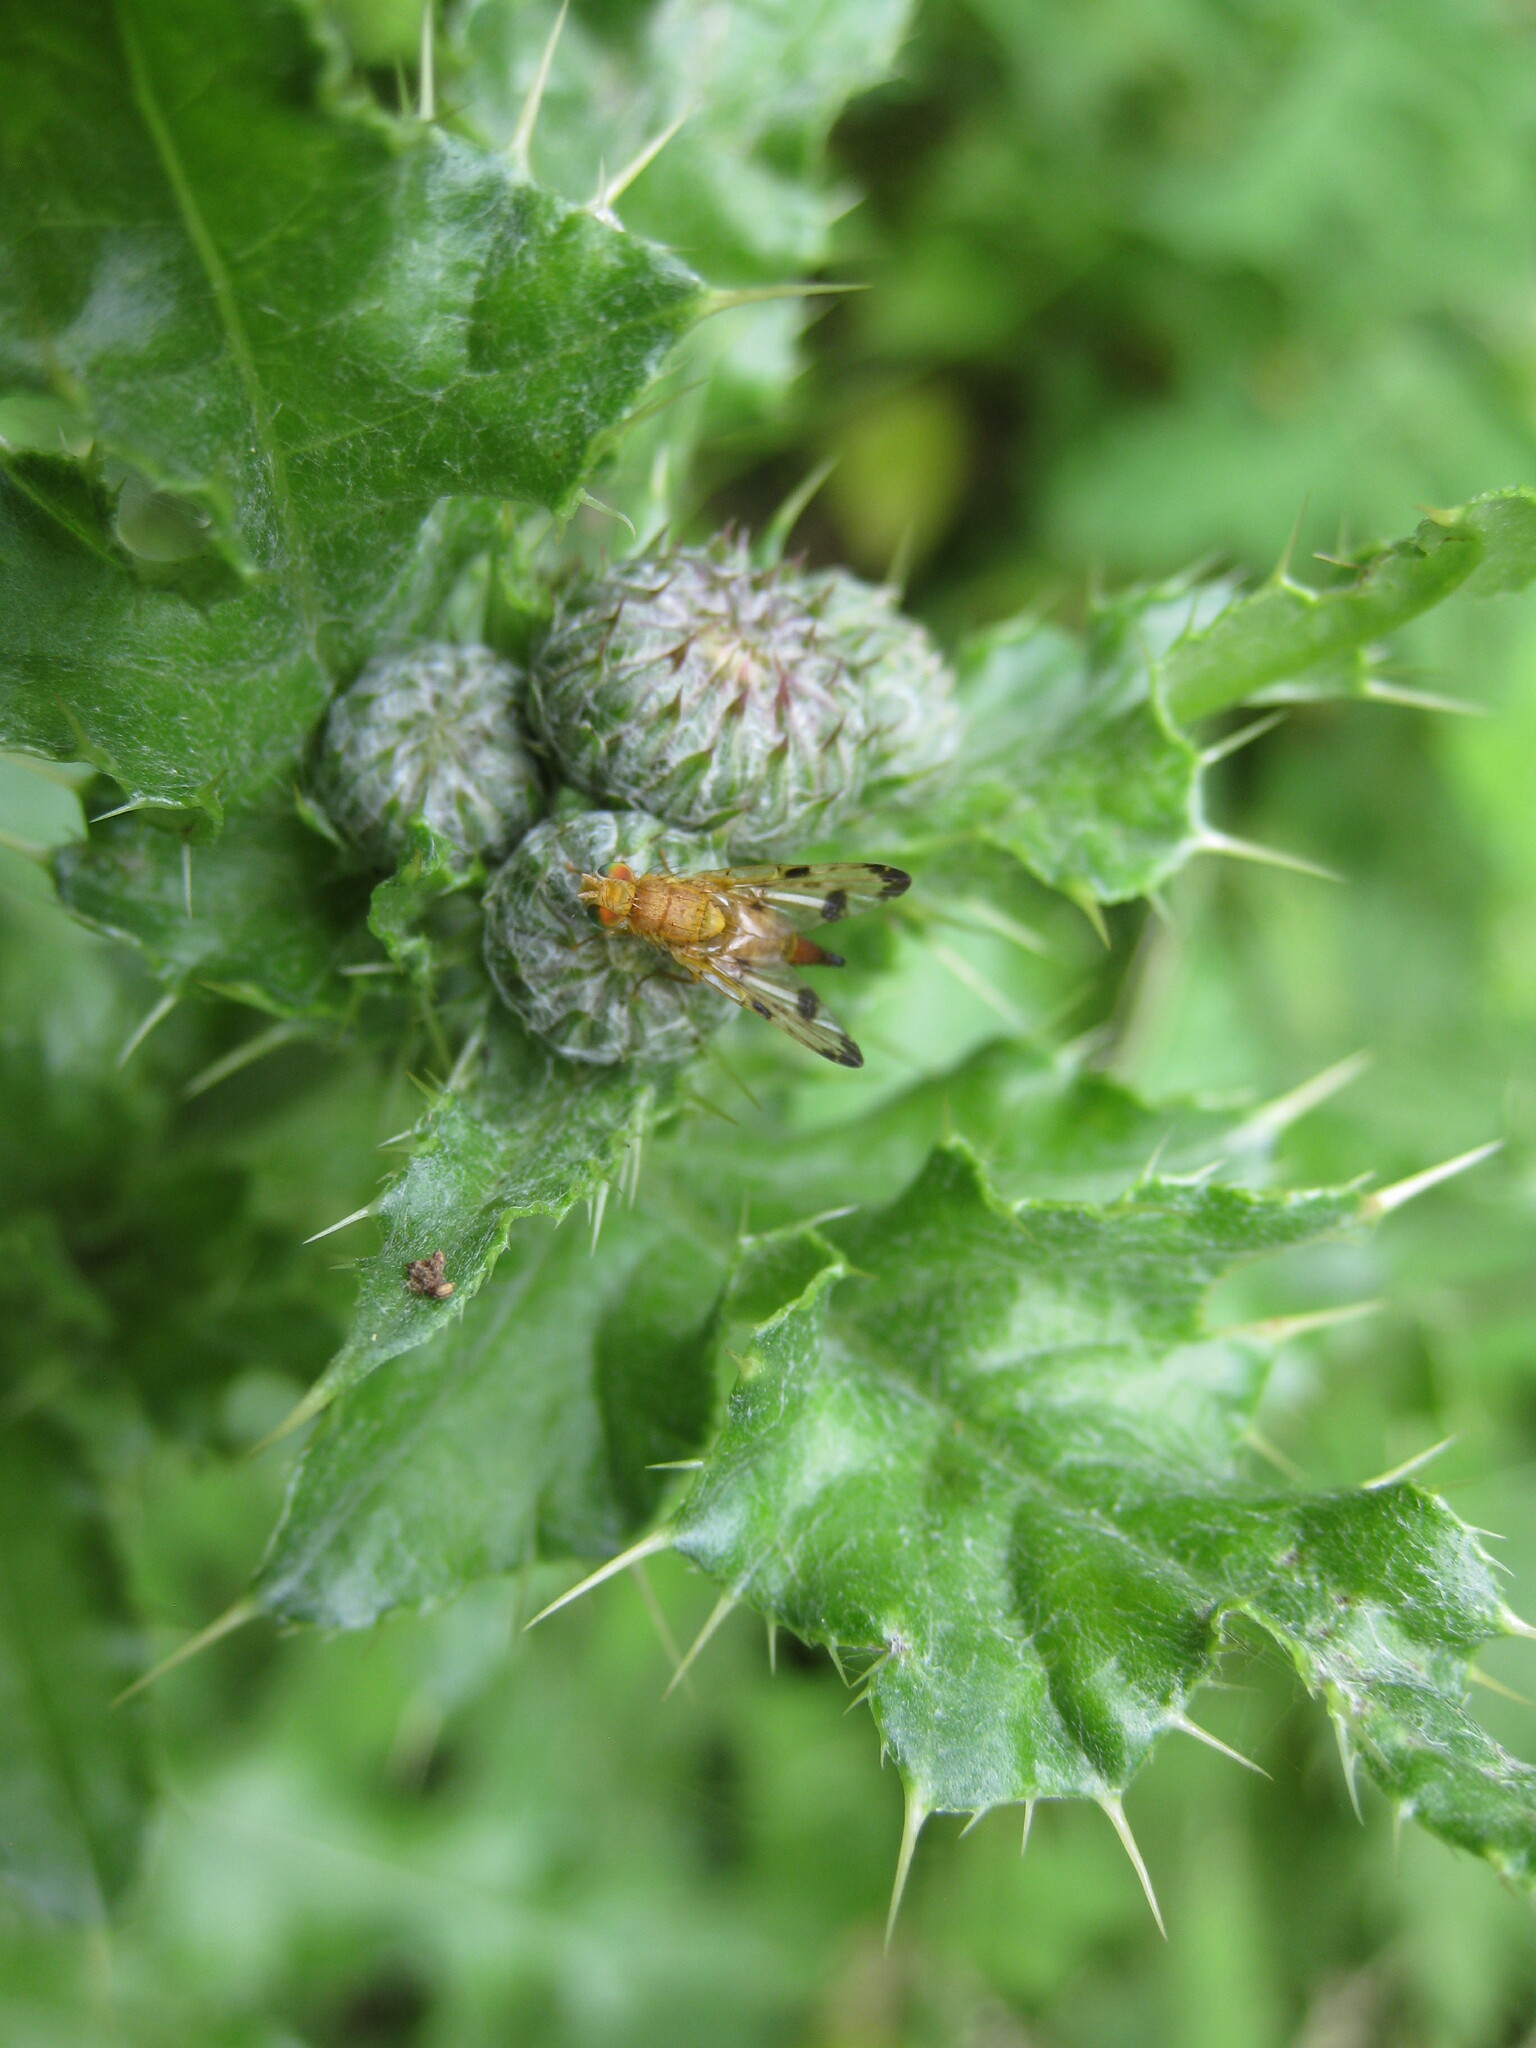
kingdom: Animalia
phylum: Arthropoda
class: Insecta
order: Diptera
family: Tephritidae
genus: Xyphosia
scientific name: Xyphosia miliaria
